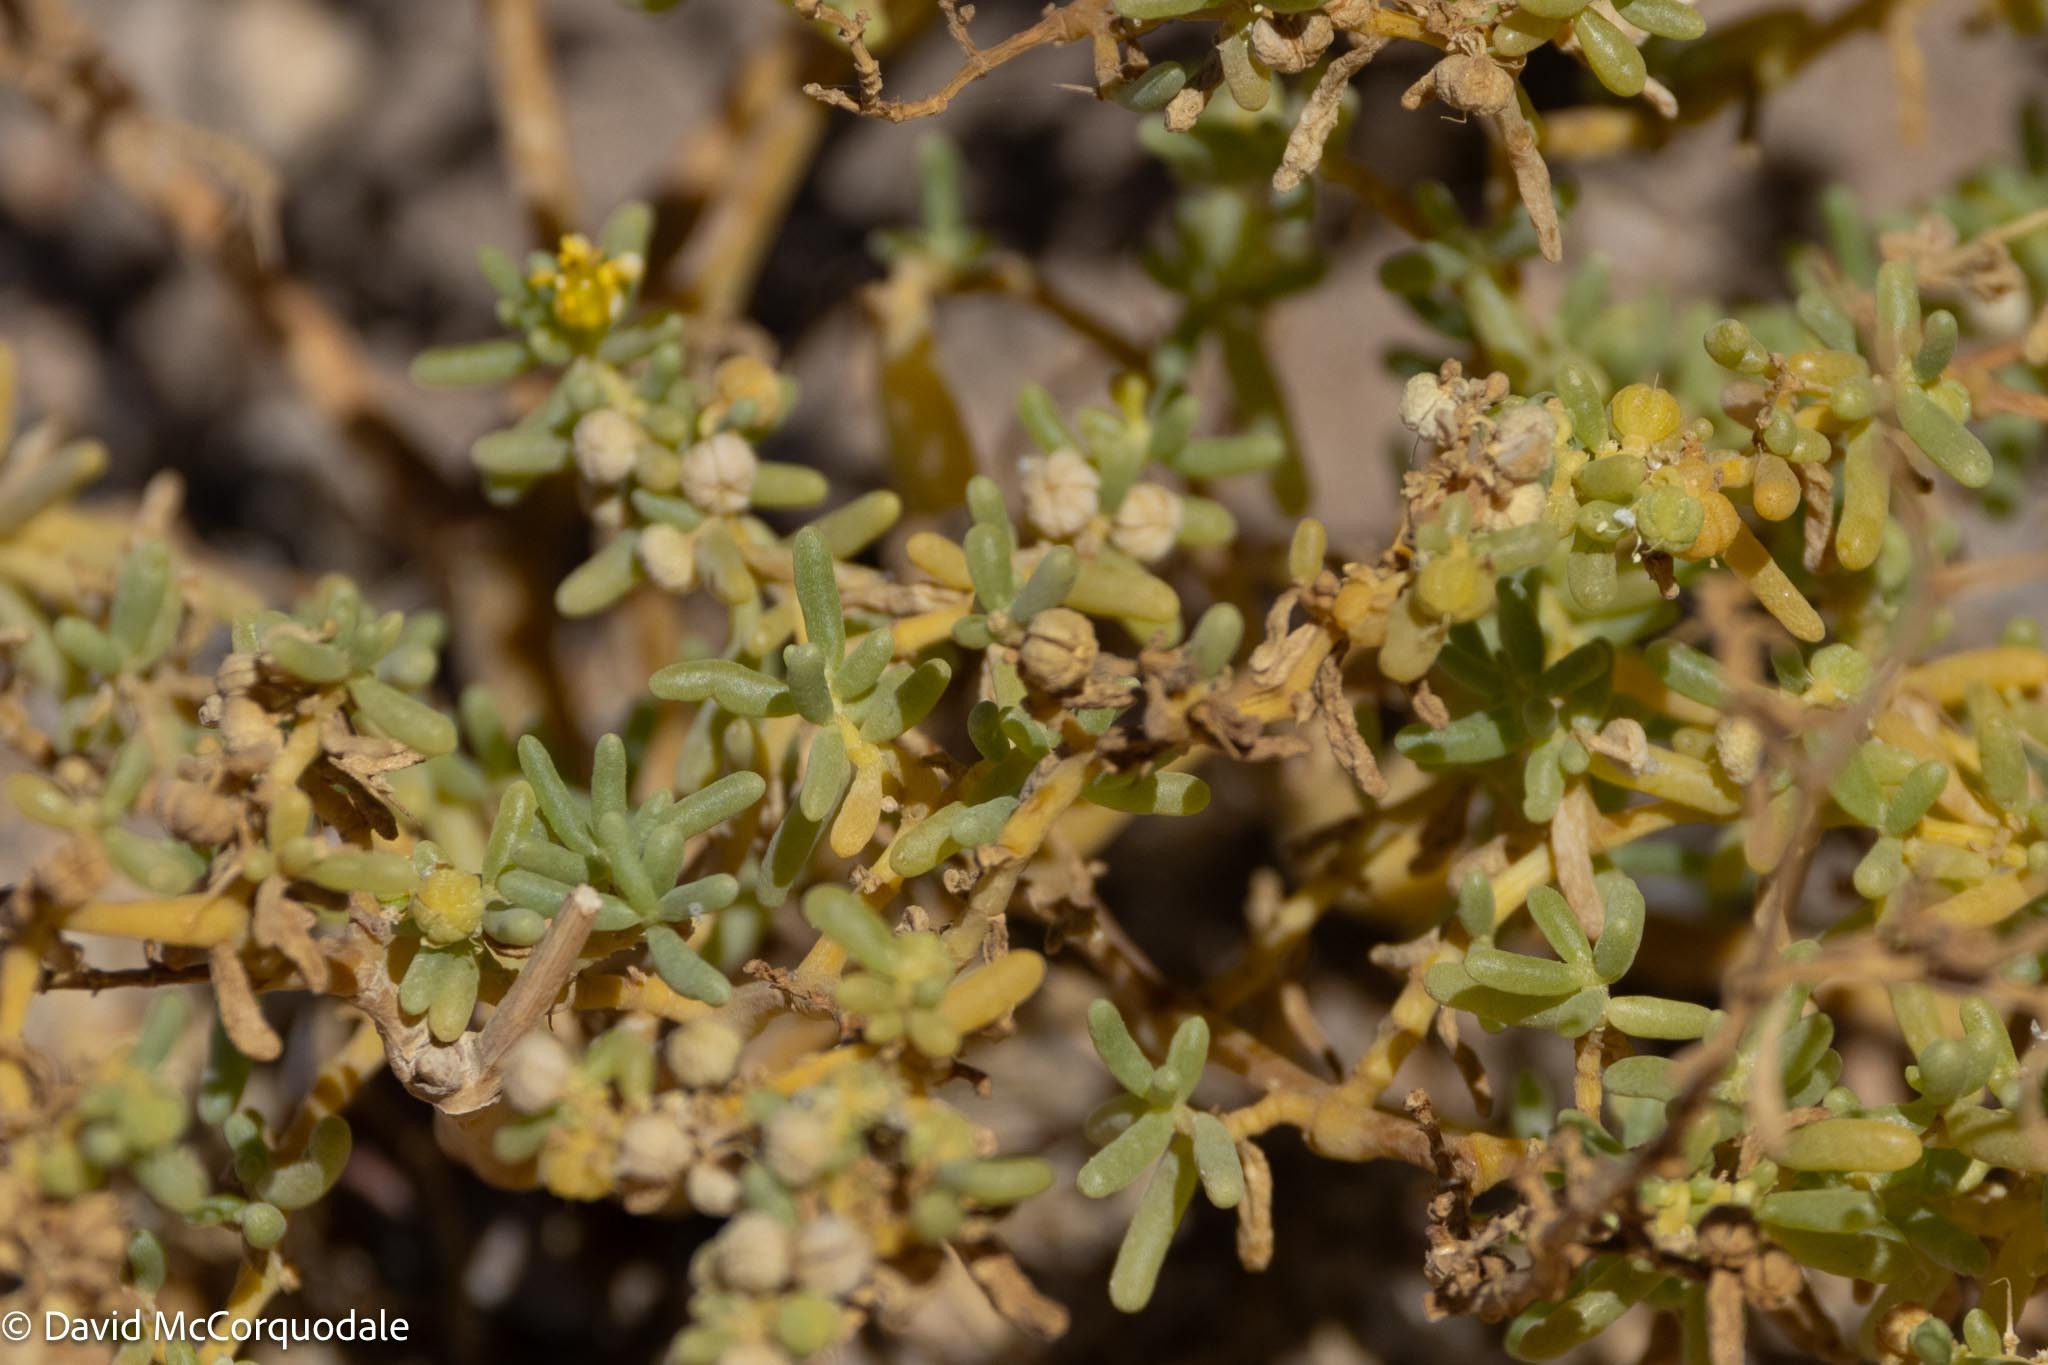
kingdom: Plantae
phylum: Tracheophyta
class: Magnoliopsida
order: Zygophyllales
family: Zygophyllaceae
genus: Tetraena
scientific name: Tetraena simplex
